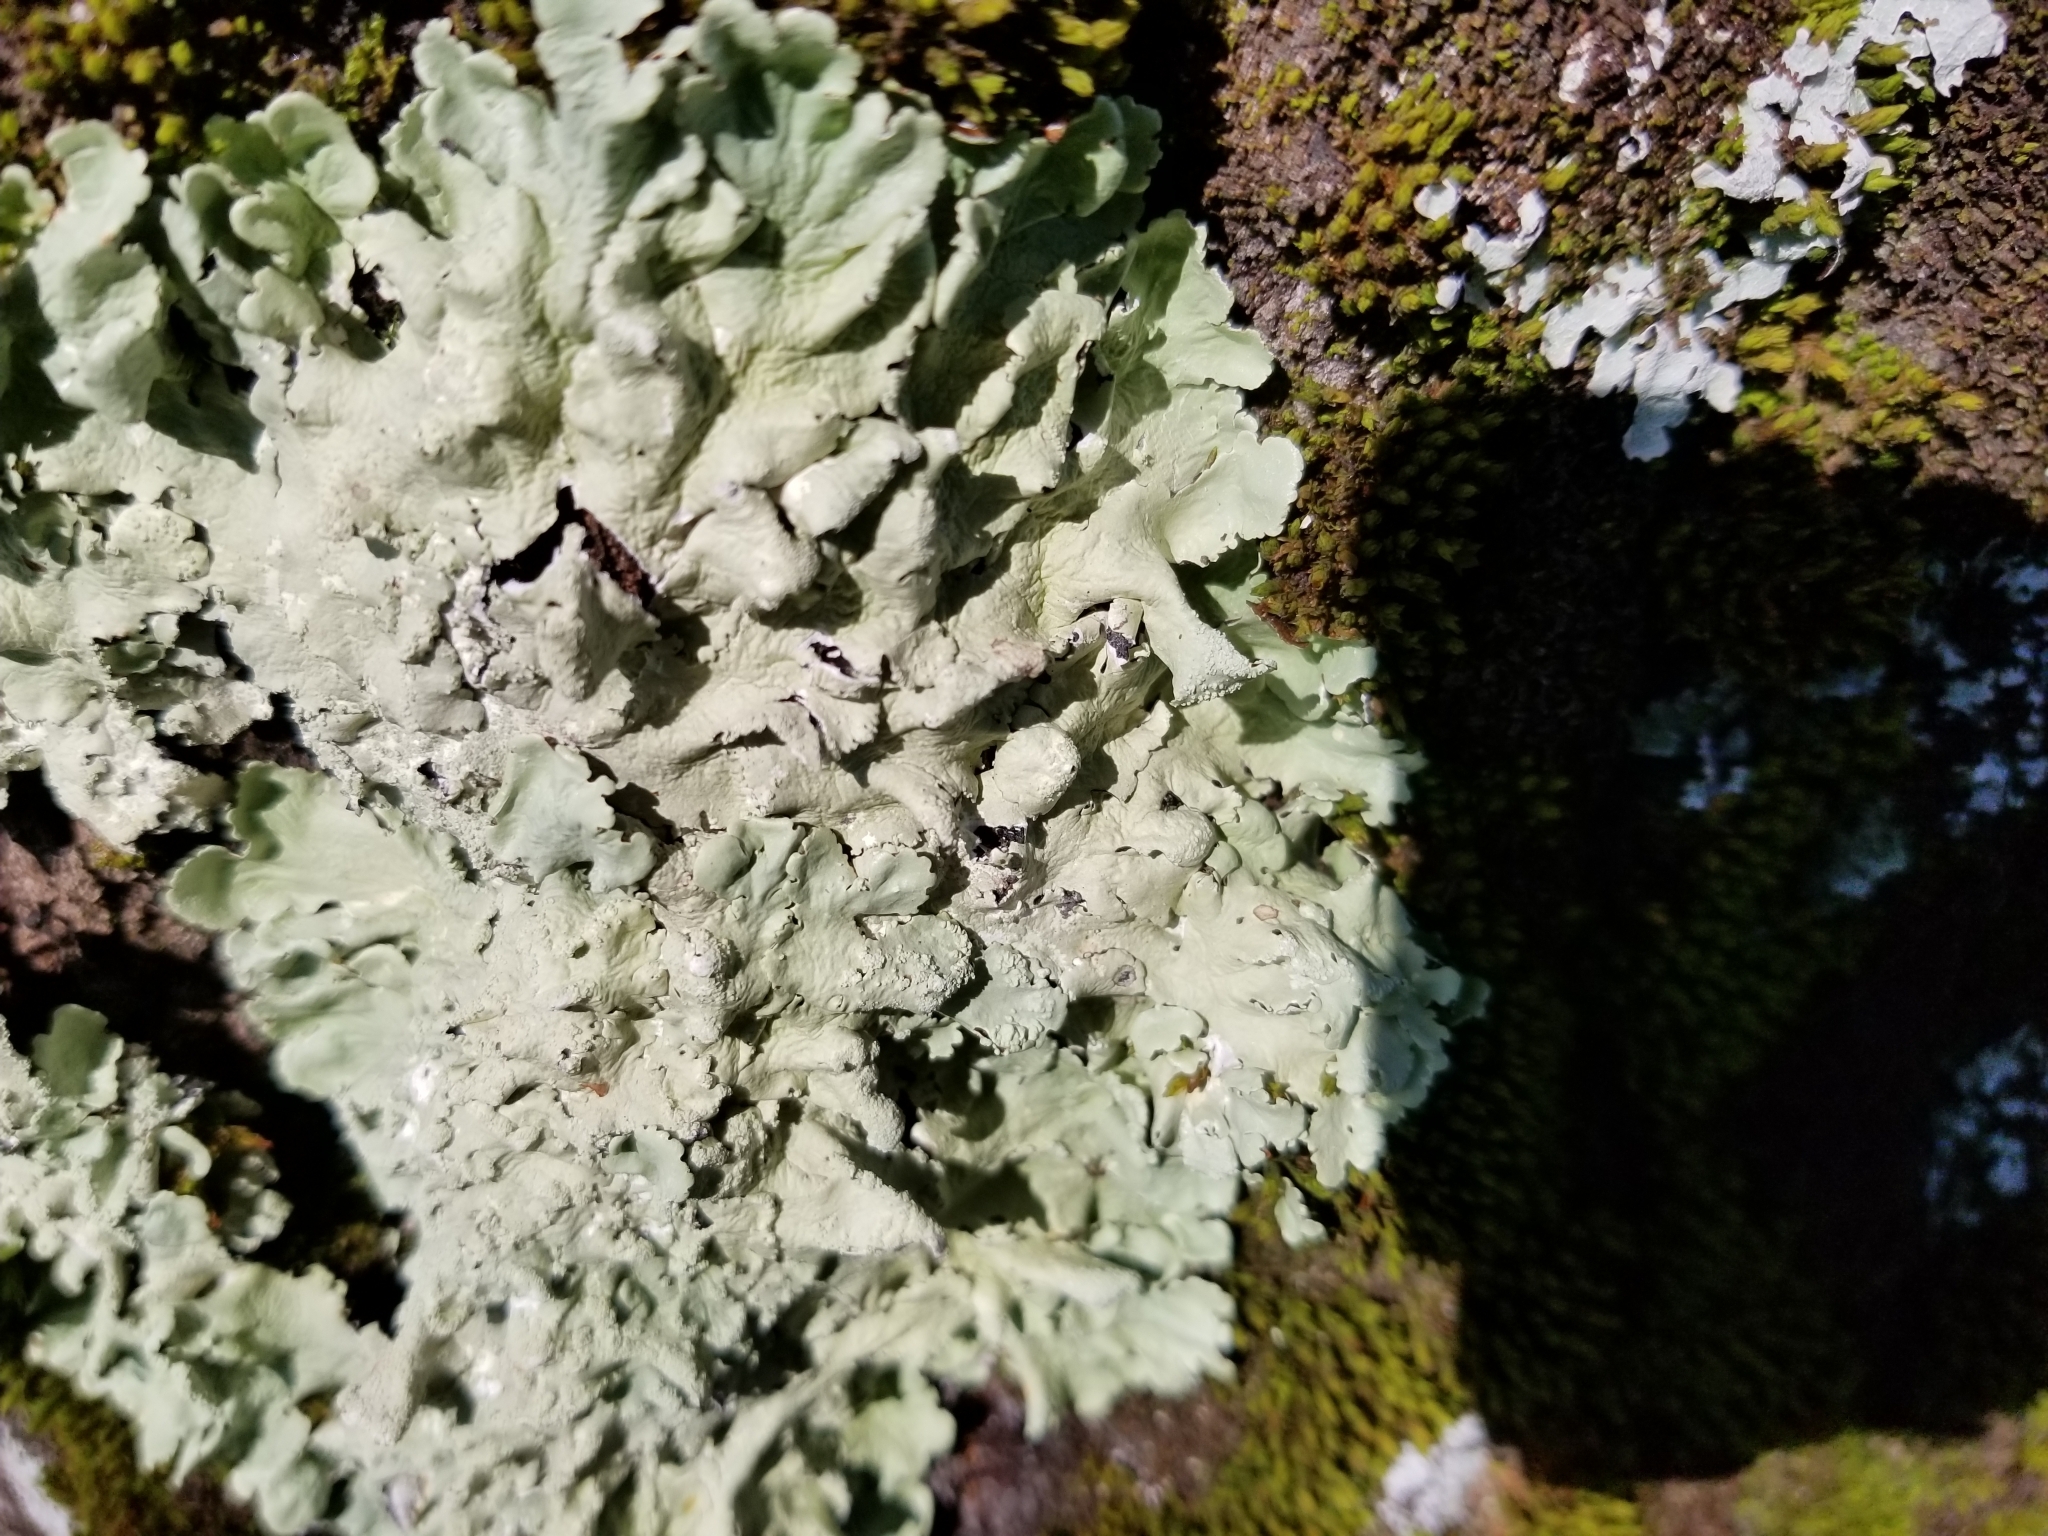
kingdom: Fungi
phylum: Ascomycota
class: Lecanoromycetes
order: Lecanorales
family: Parmeliaceae
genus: Flavoparmelia
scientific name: Flavoparmelia caperata
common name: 40-mile per hour lichen
